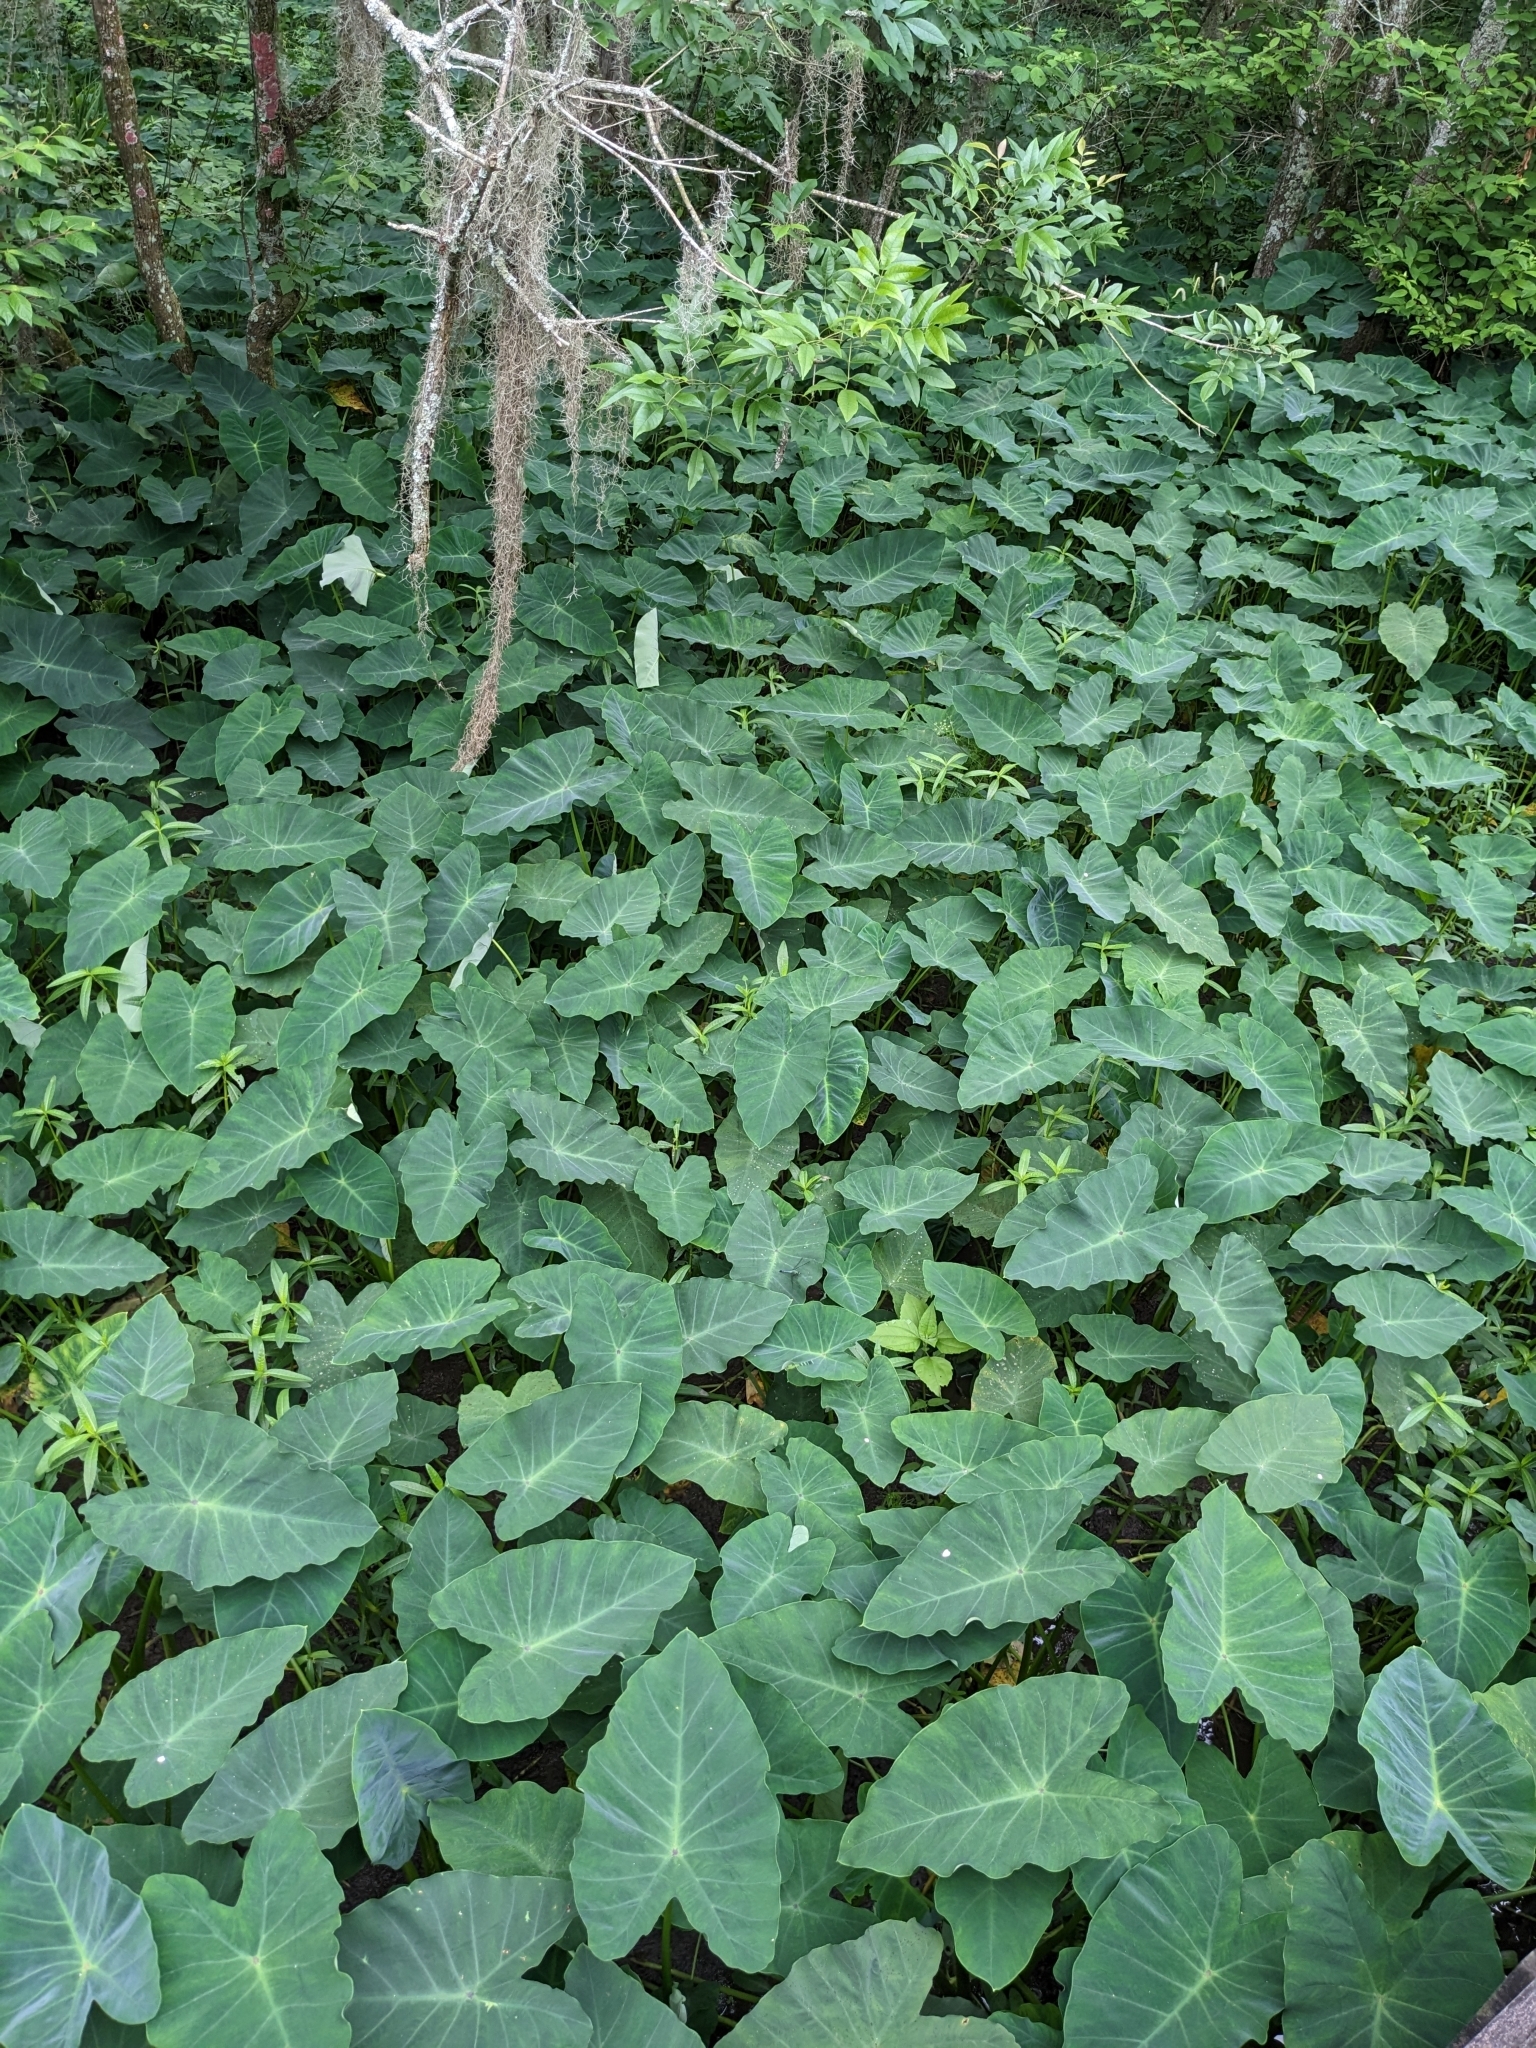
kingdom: Plantae
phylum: Tracheophyta
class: Liliopsida
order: Alismatales
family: Araceae
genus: Colocasia
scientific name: Colocasia esculenta
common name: Taro
